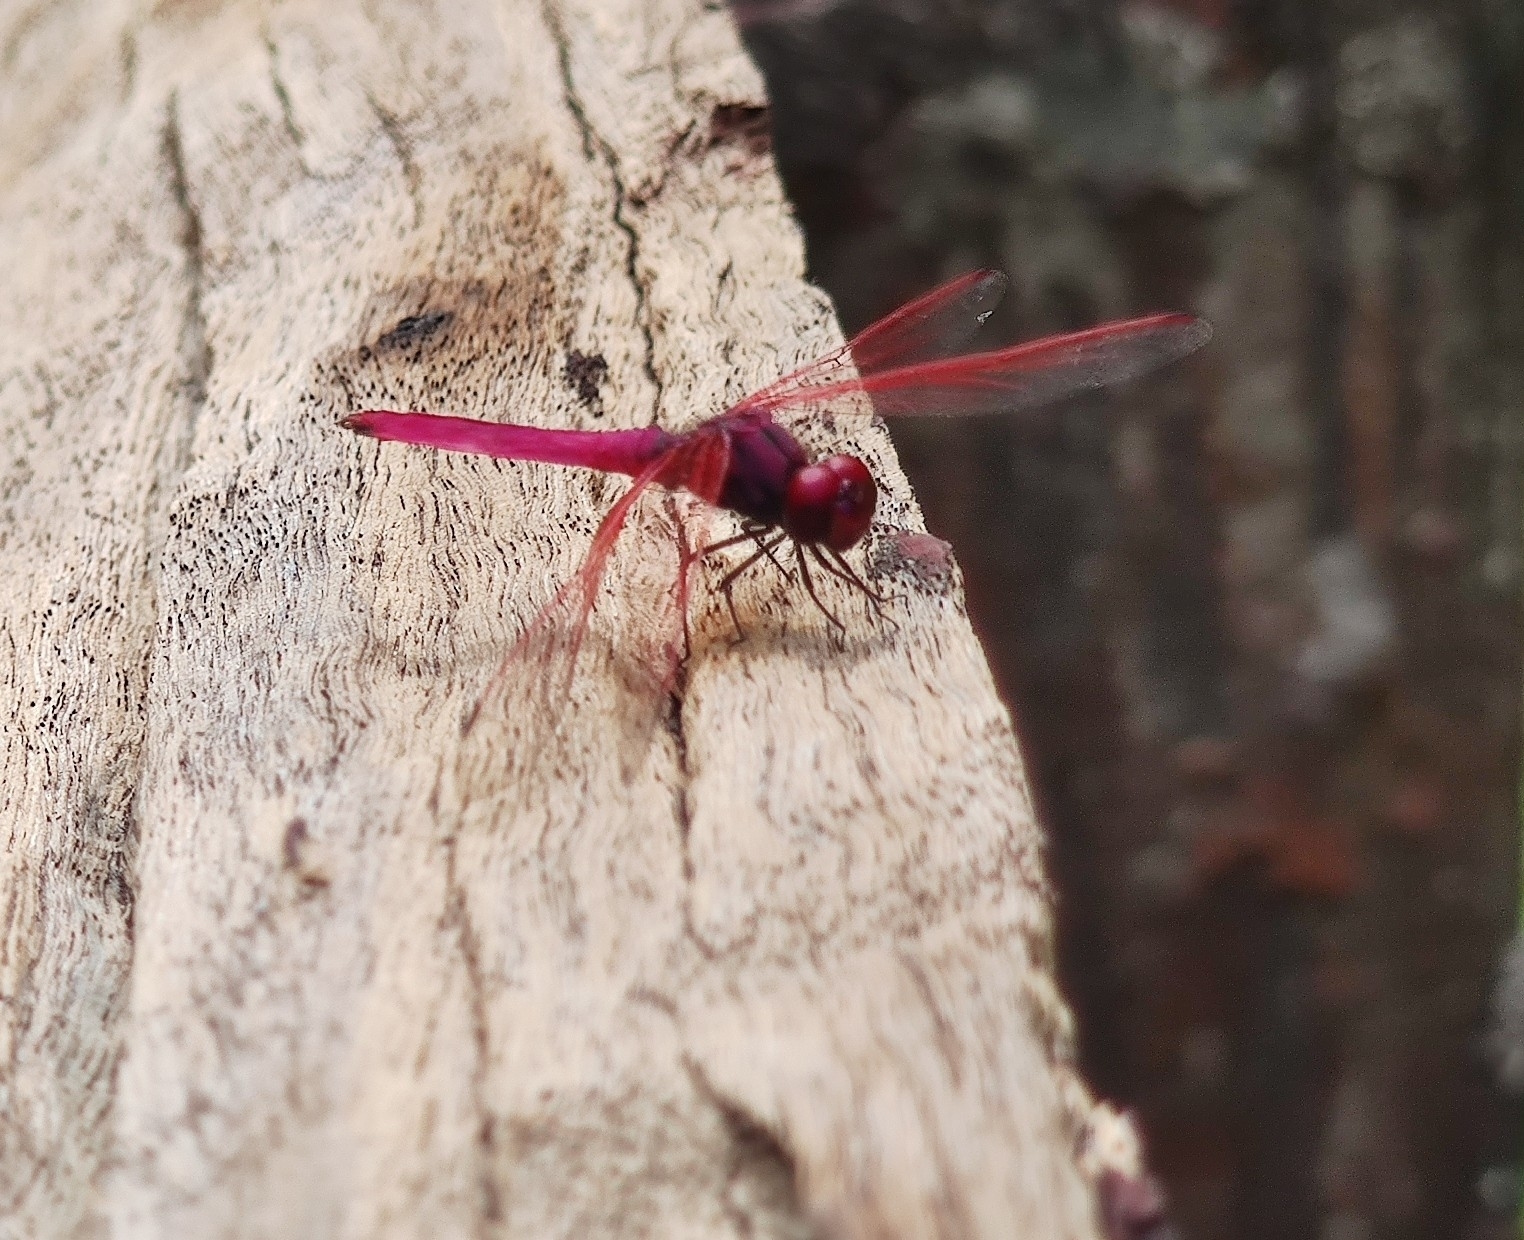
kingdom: Animalia
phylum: Arthropoda
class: Insecta
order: Odonata
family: Libellulidae
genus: Trithemis
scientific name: Trithemis aurora
